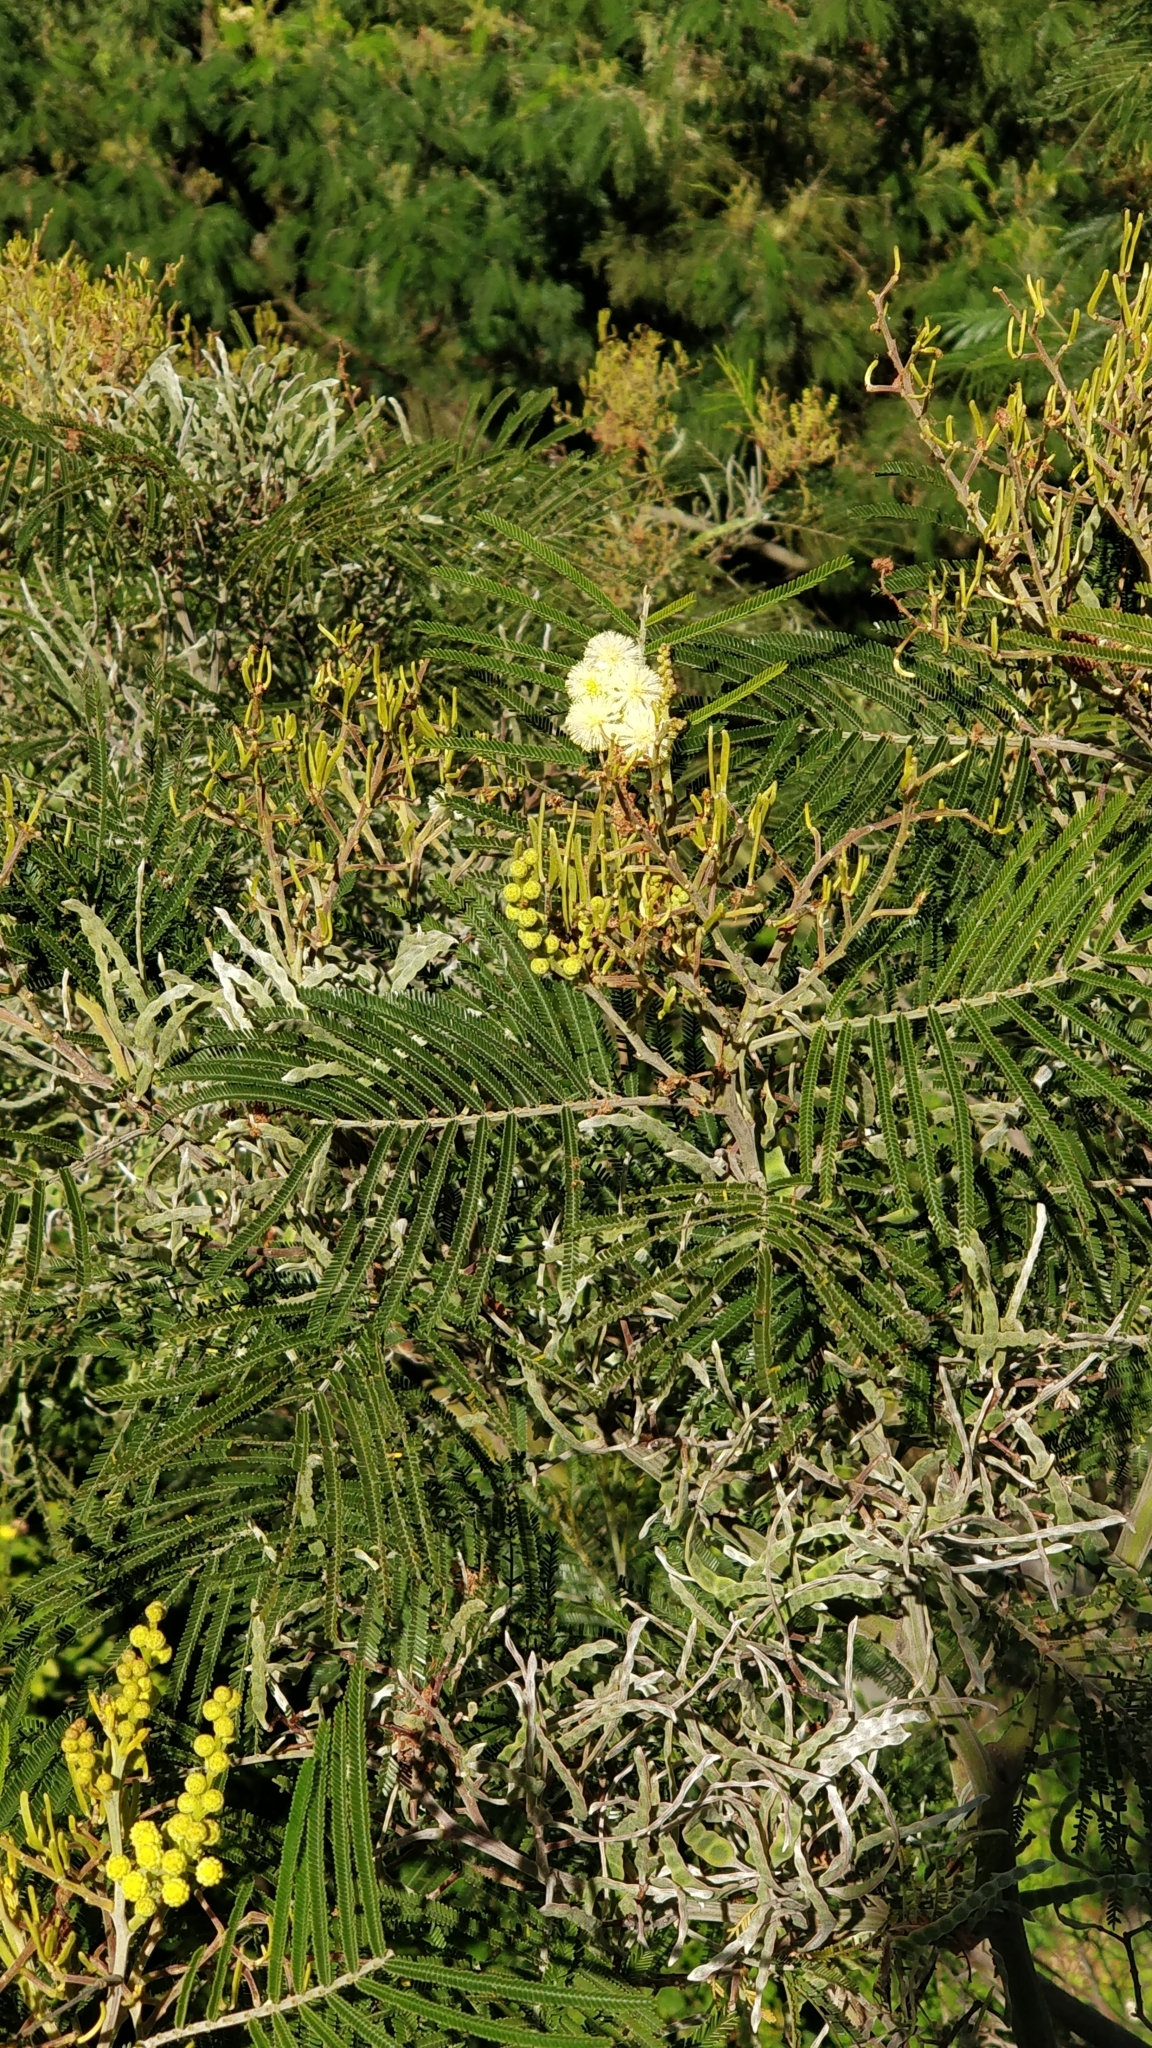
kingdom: Plantae
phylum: Tracheophyta
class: Magnoliopsida
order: Fabales
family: Fabaceae
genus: Acacia
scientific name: Acacia mearnsii
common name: Black wattle
